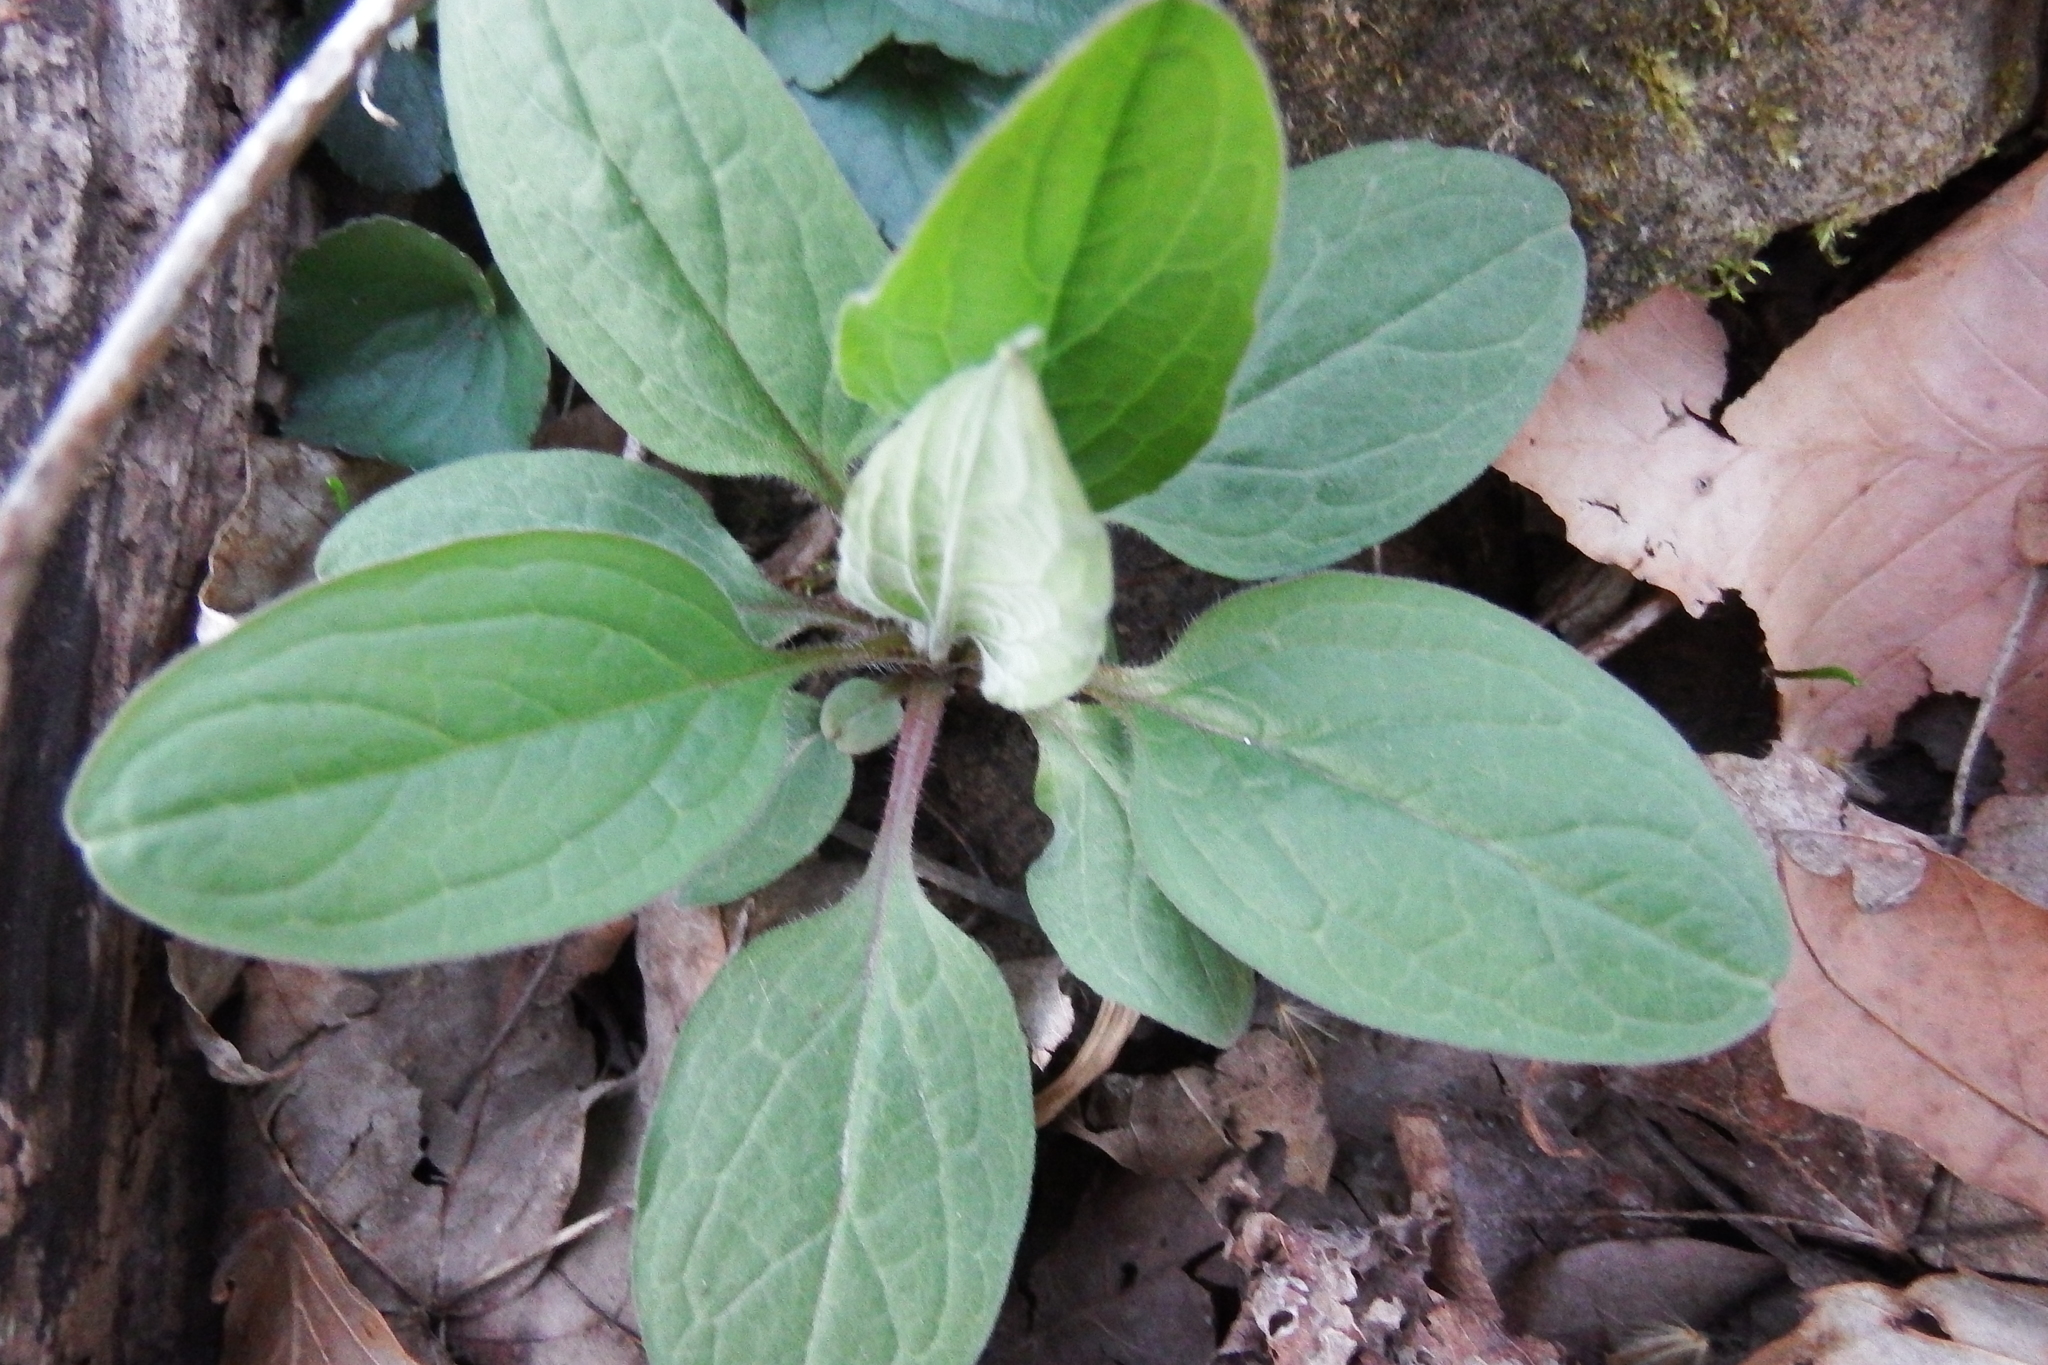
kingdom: Plantae
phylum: Tracheophyta
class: Magnoliopsida
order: Boraginales
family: Boraginaceae
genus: Hackelia
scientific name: Hackelia virginiana
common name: Beggar's-lice
